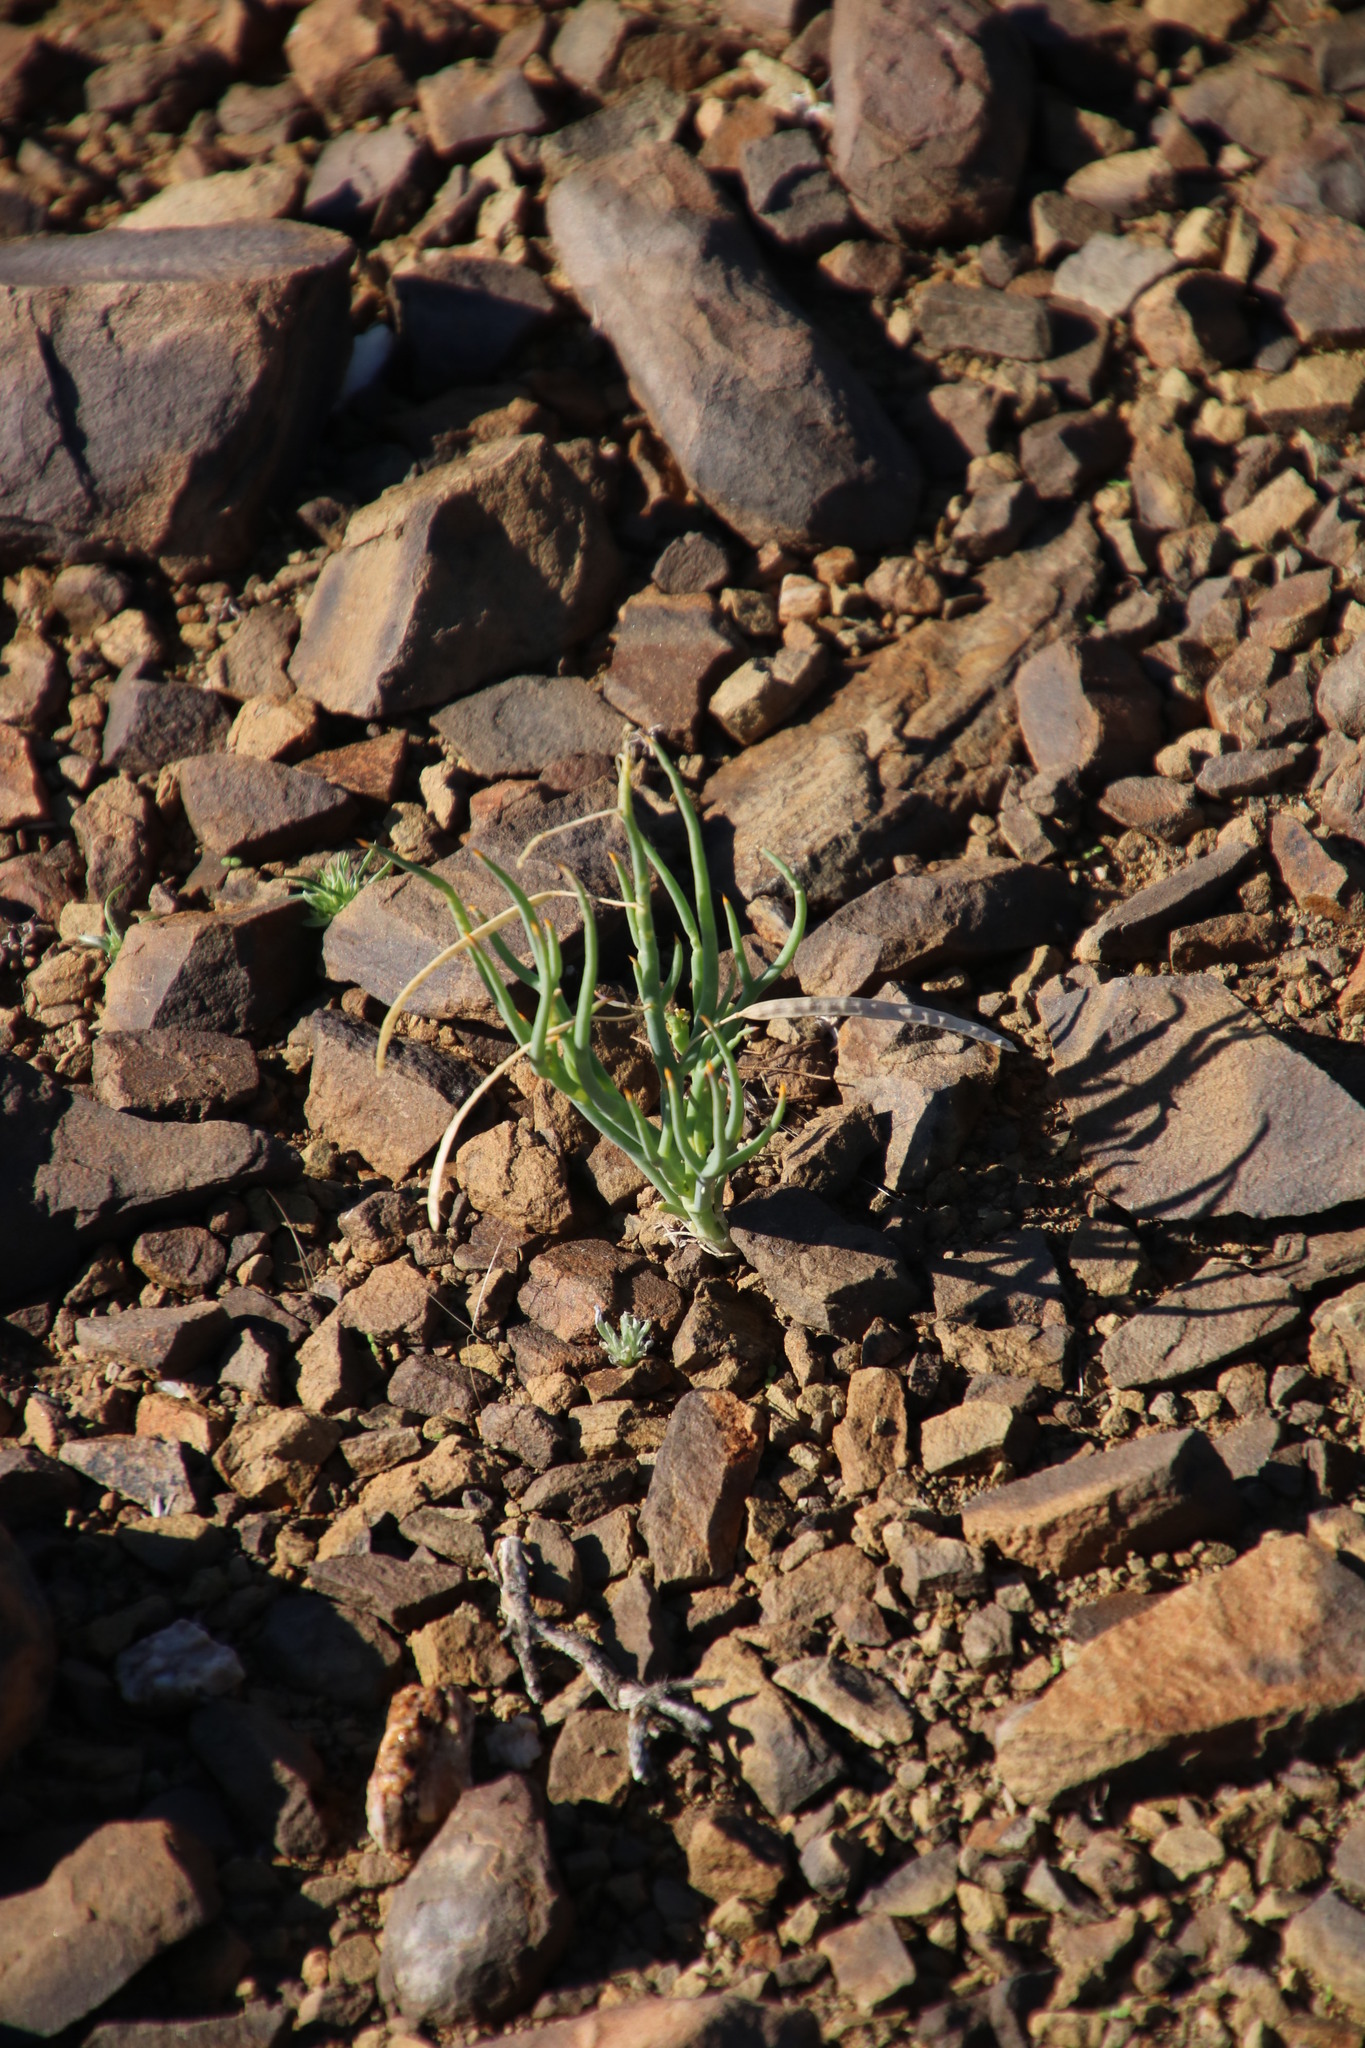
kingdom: Plantae
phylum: Tracheophyta
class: Magnoliopsida
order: Brassicales
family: Brassicaceae
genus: Heliophila
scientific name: Heliophila trifurca
